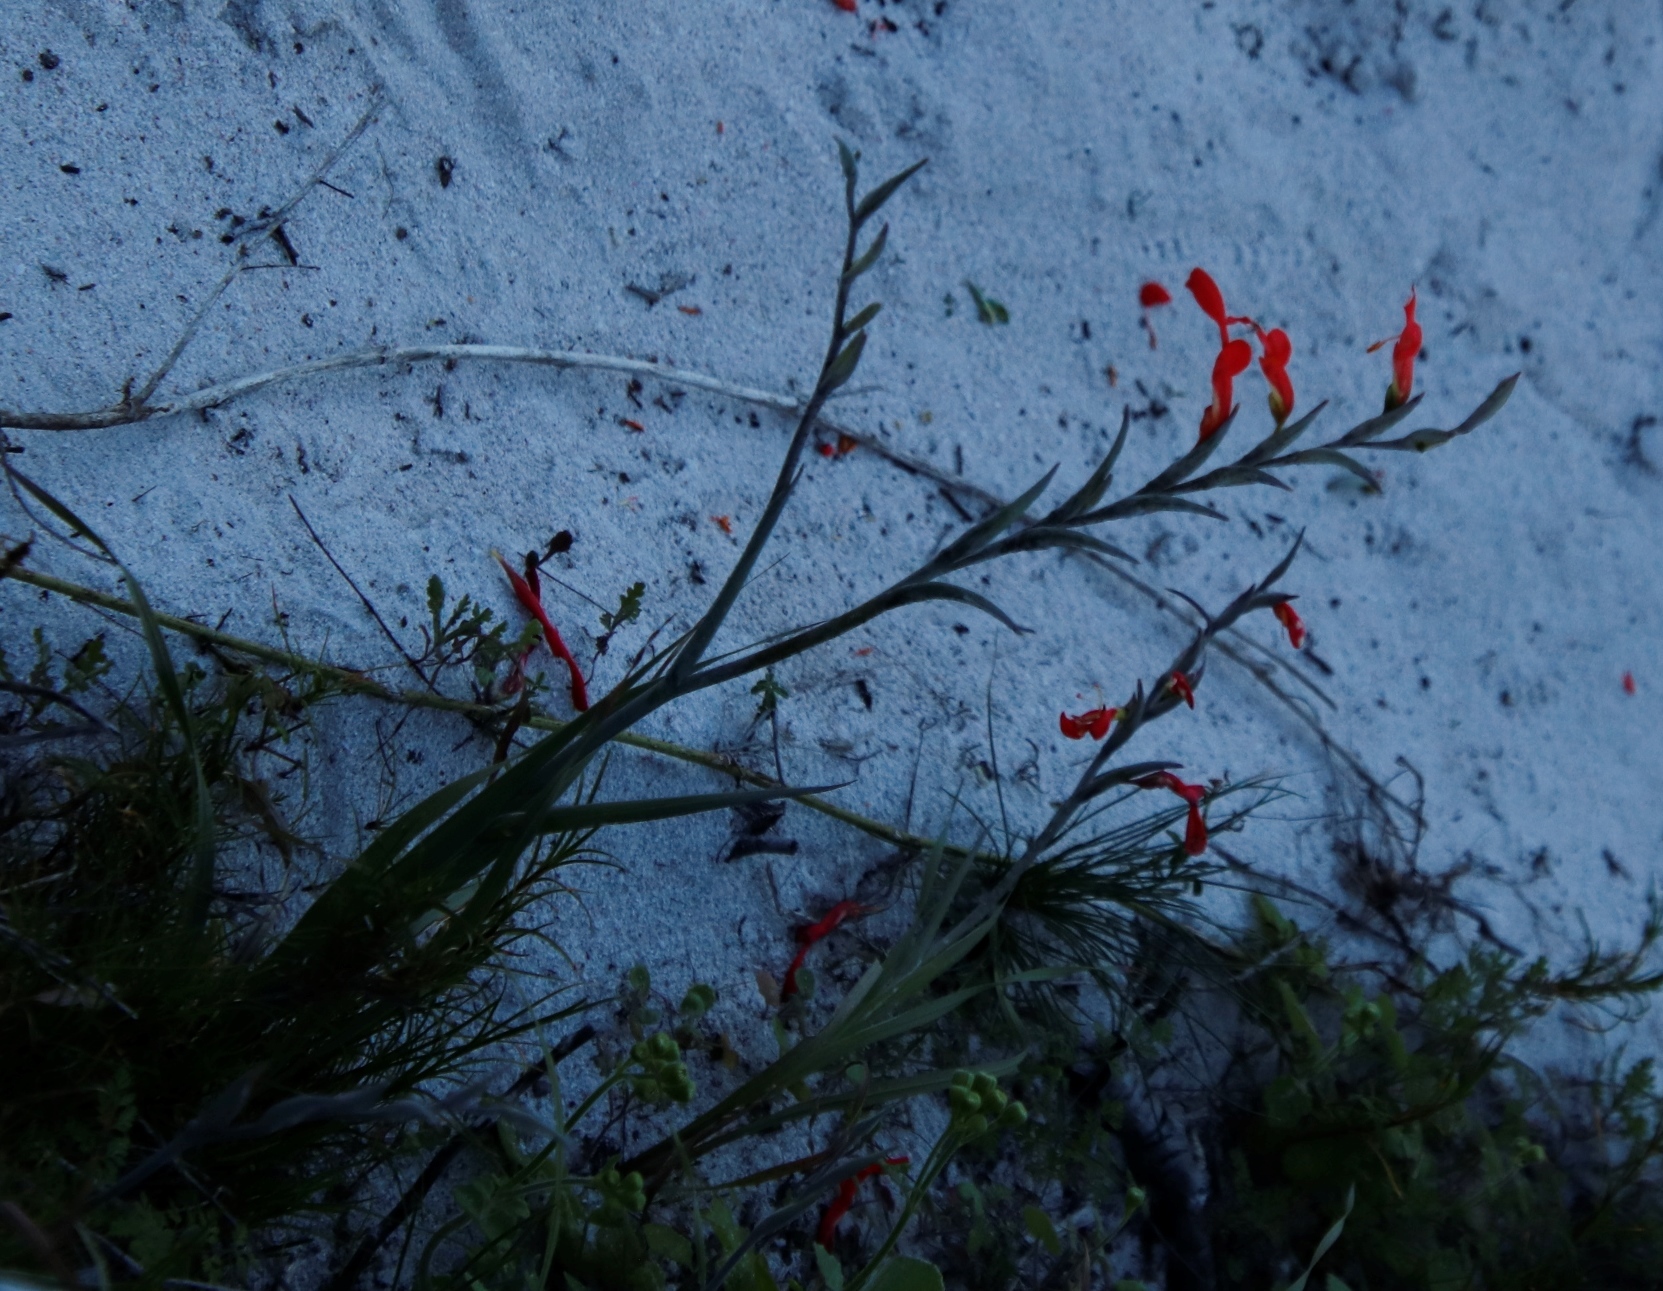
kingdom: Plantae
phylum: Tracheophyta
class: Liliopsida
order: Asparagales
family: Iridaceae
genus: Gladiolus
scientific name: Gladiolus cunonius
